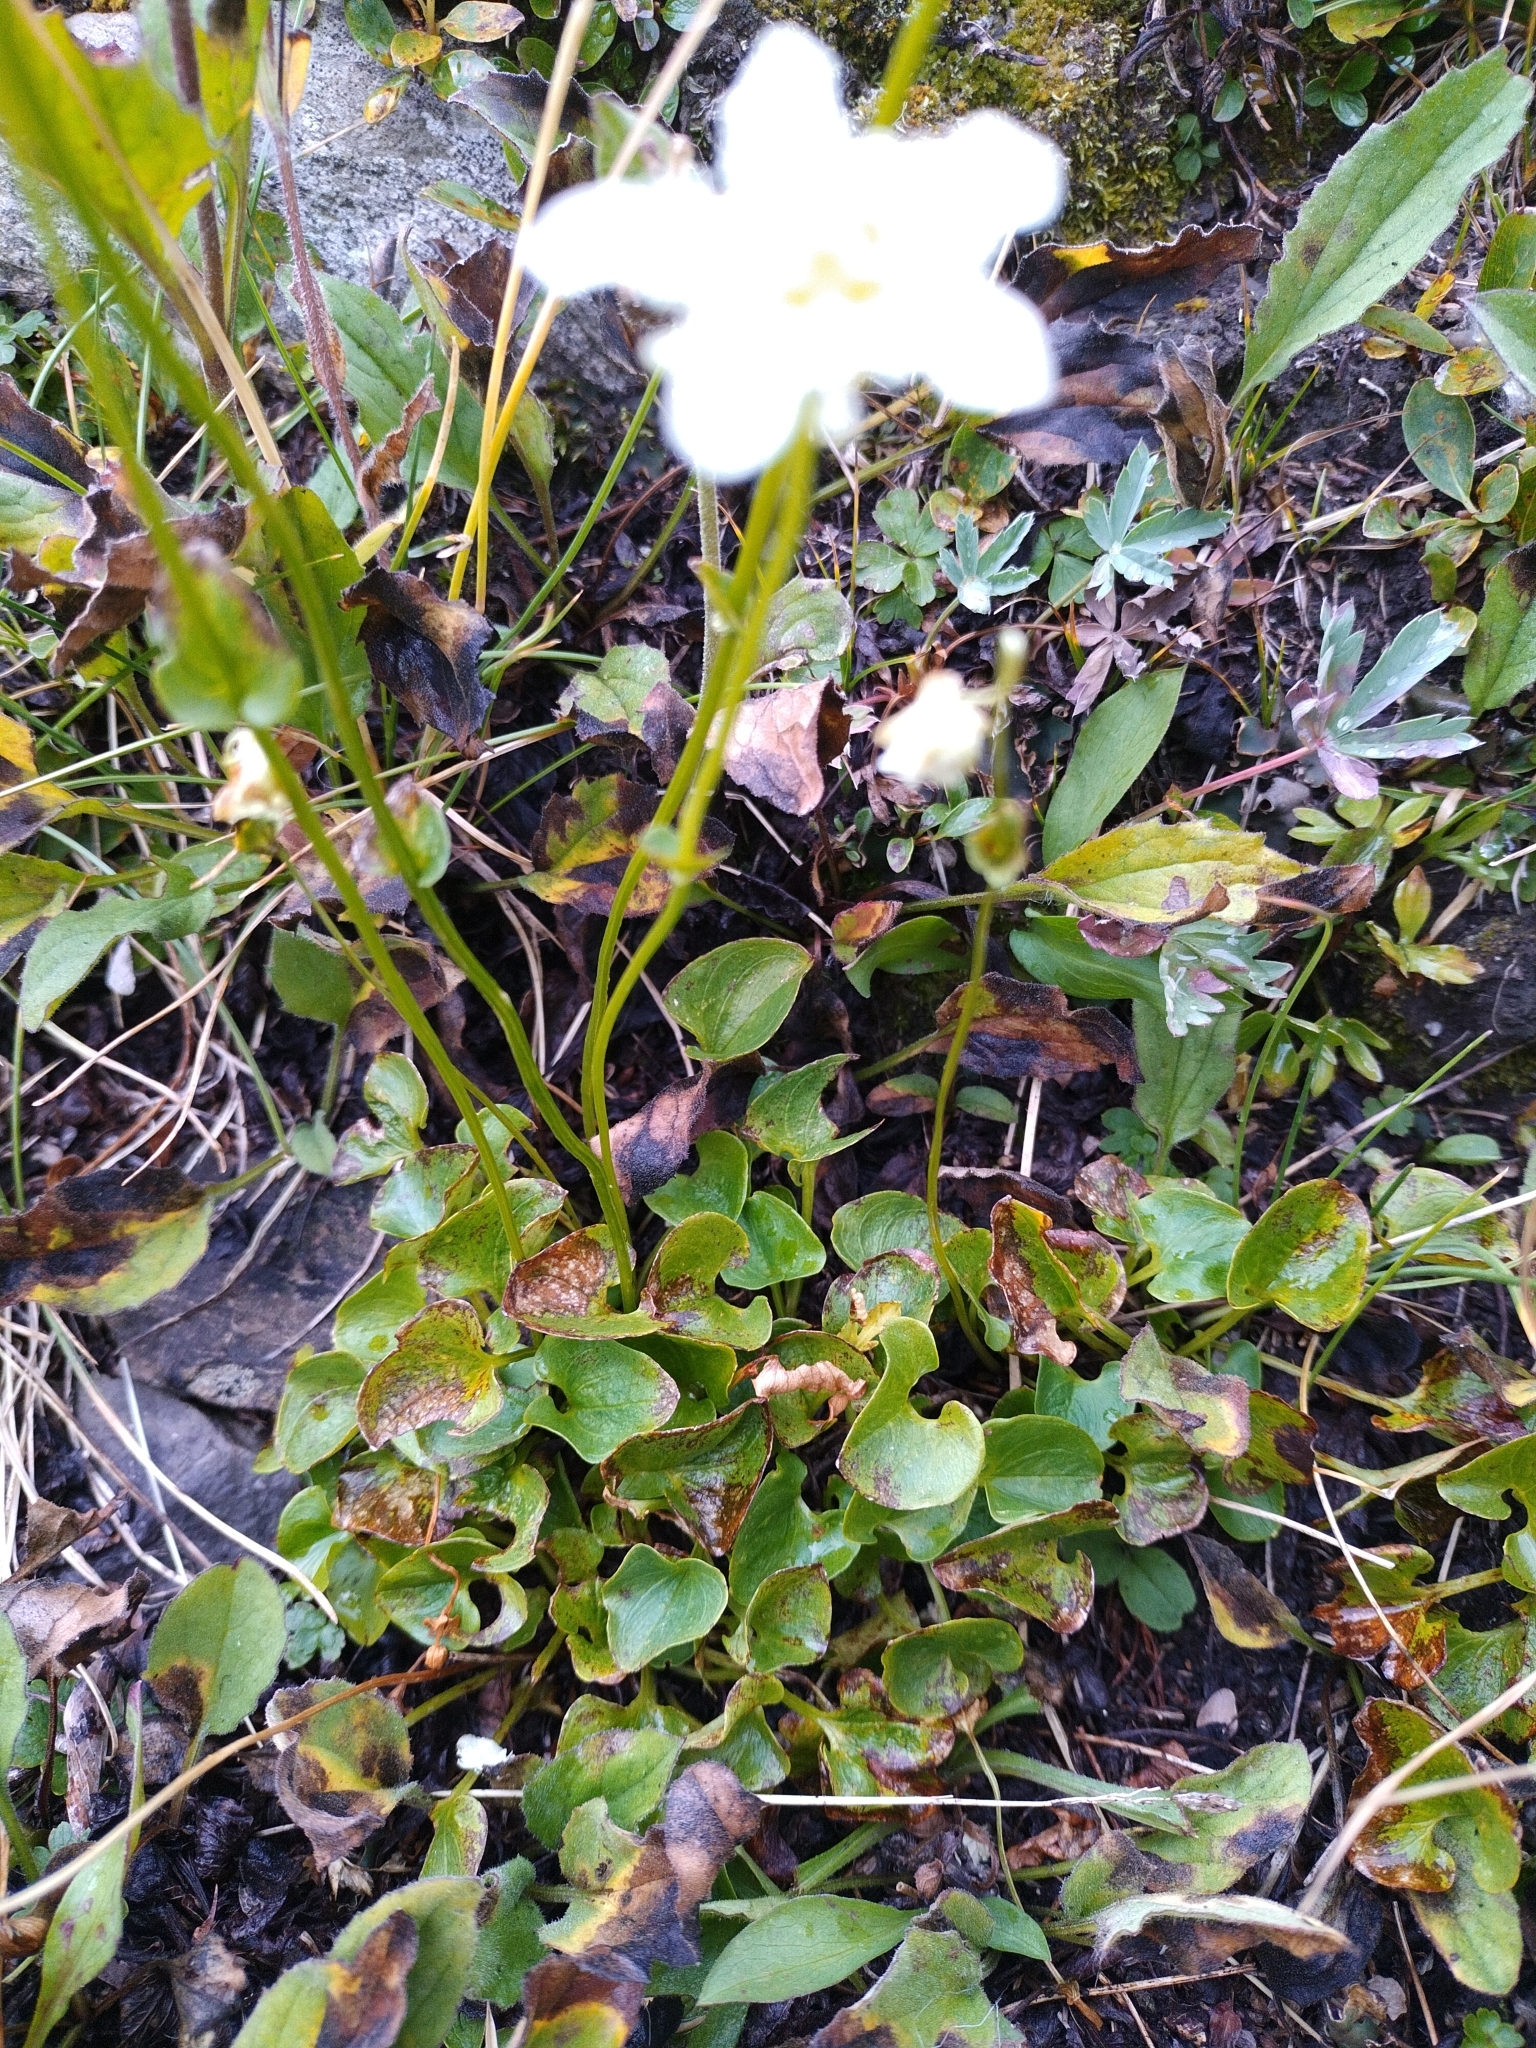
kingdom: Plantae
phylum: Tracheophyta
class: Magnoliopsida
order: Celastrales
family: Parnassiaceae
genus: Parnassia
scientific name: Parnassia fimbriata
